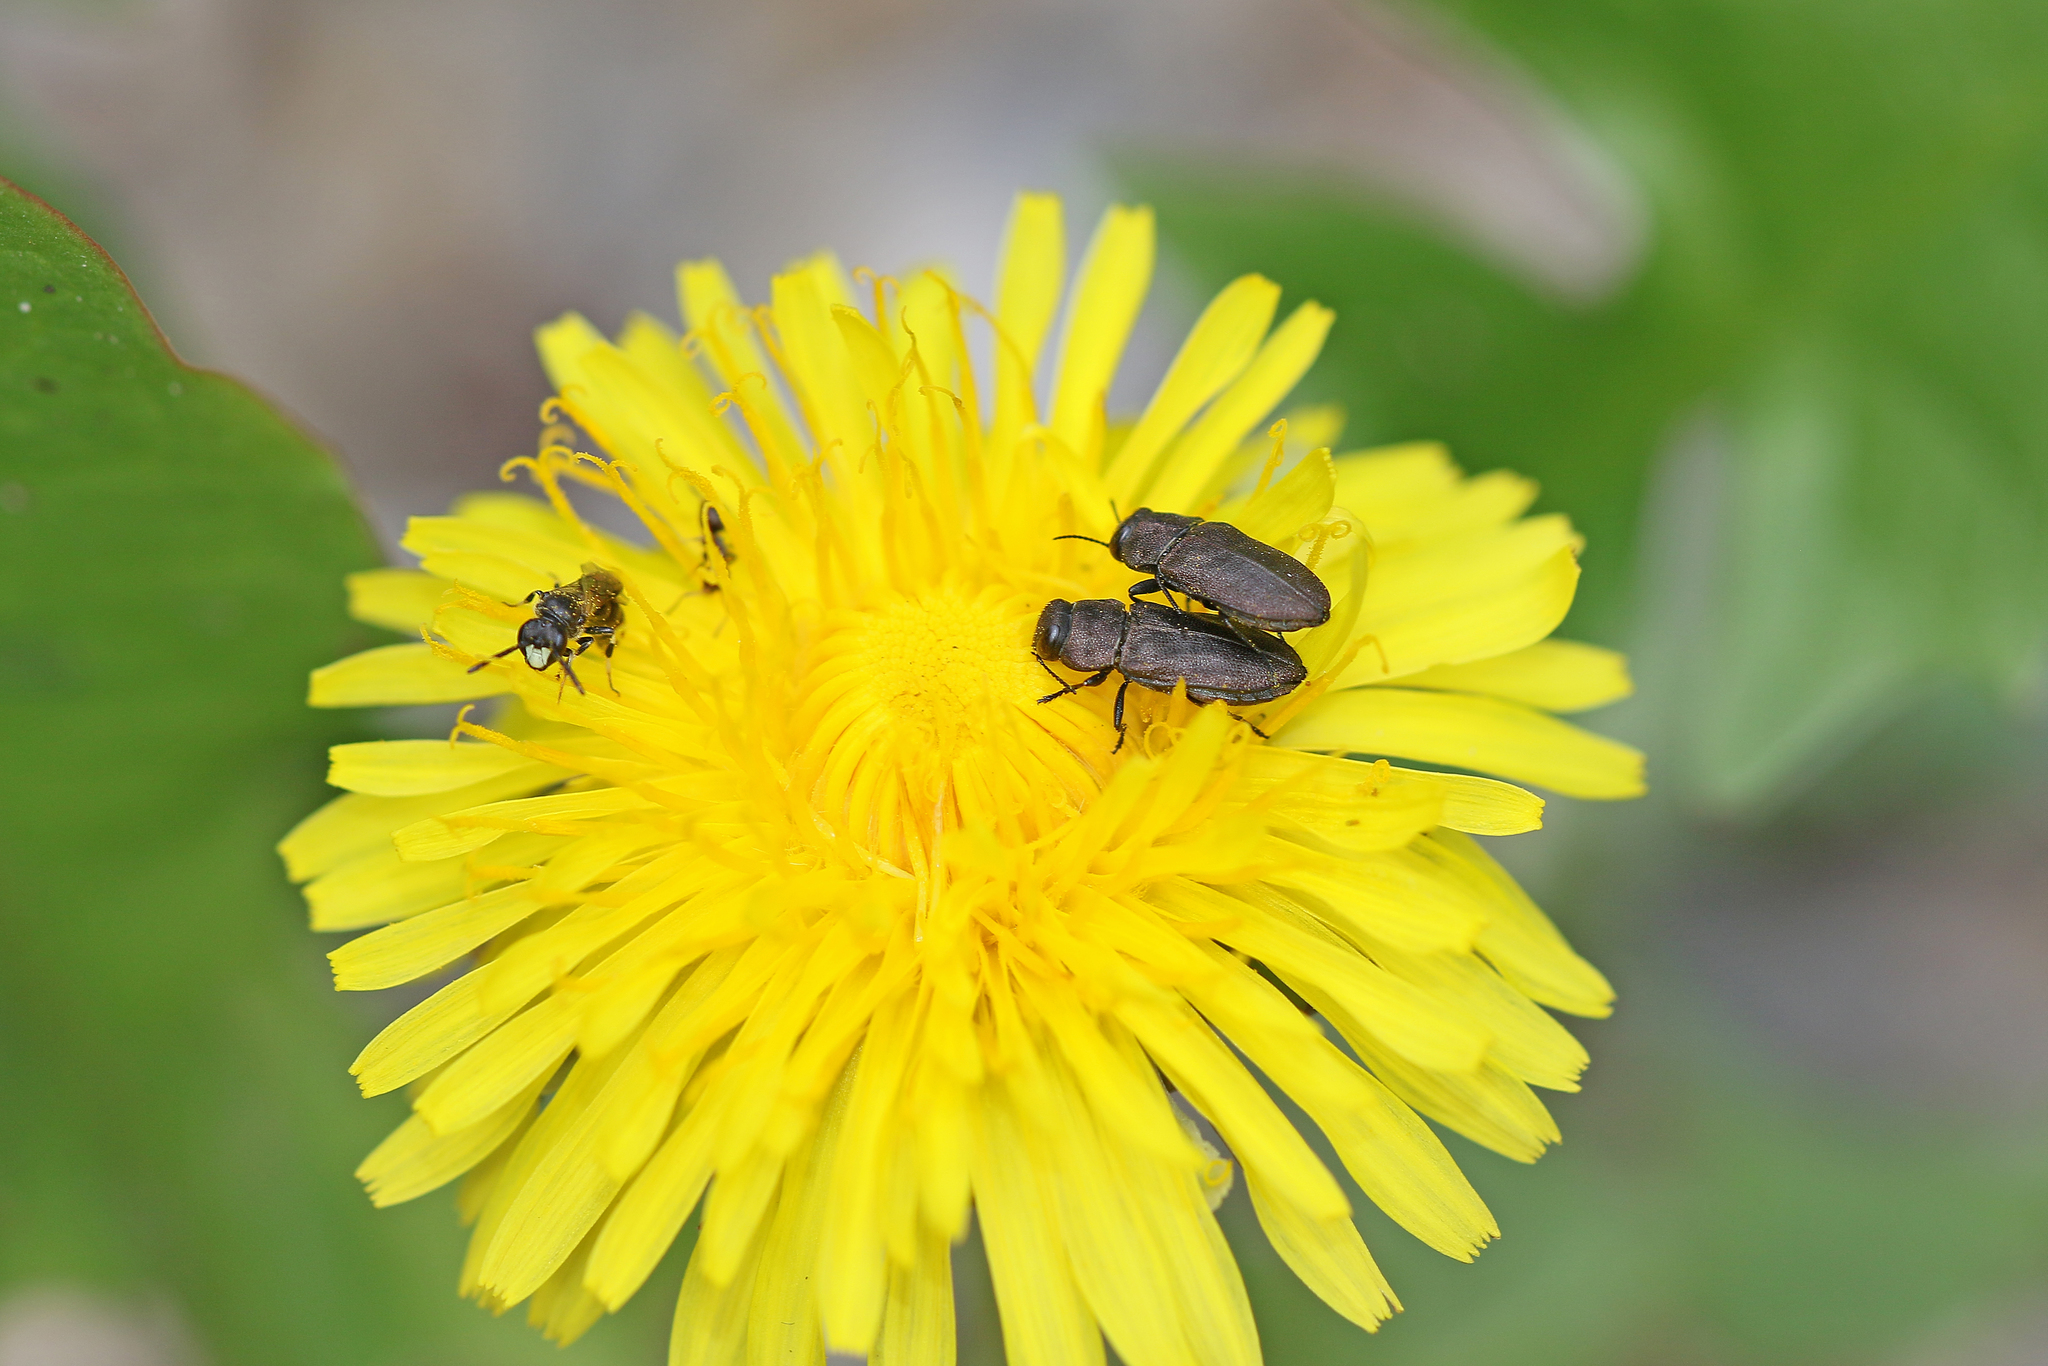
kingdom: Animalia
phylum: Arthropoda
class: Insecta
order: Coleoptera
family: Buprestidae
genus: Anthaxia
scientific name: Anthaxia helvetica
